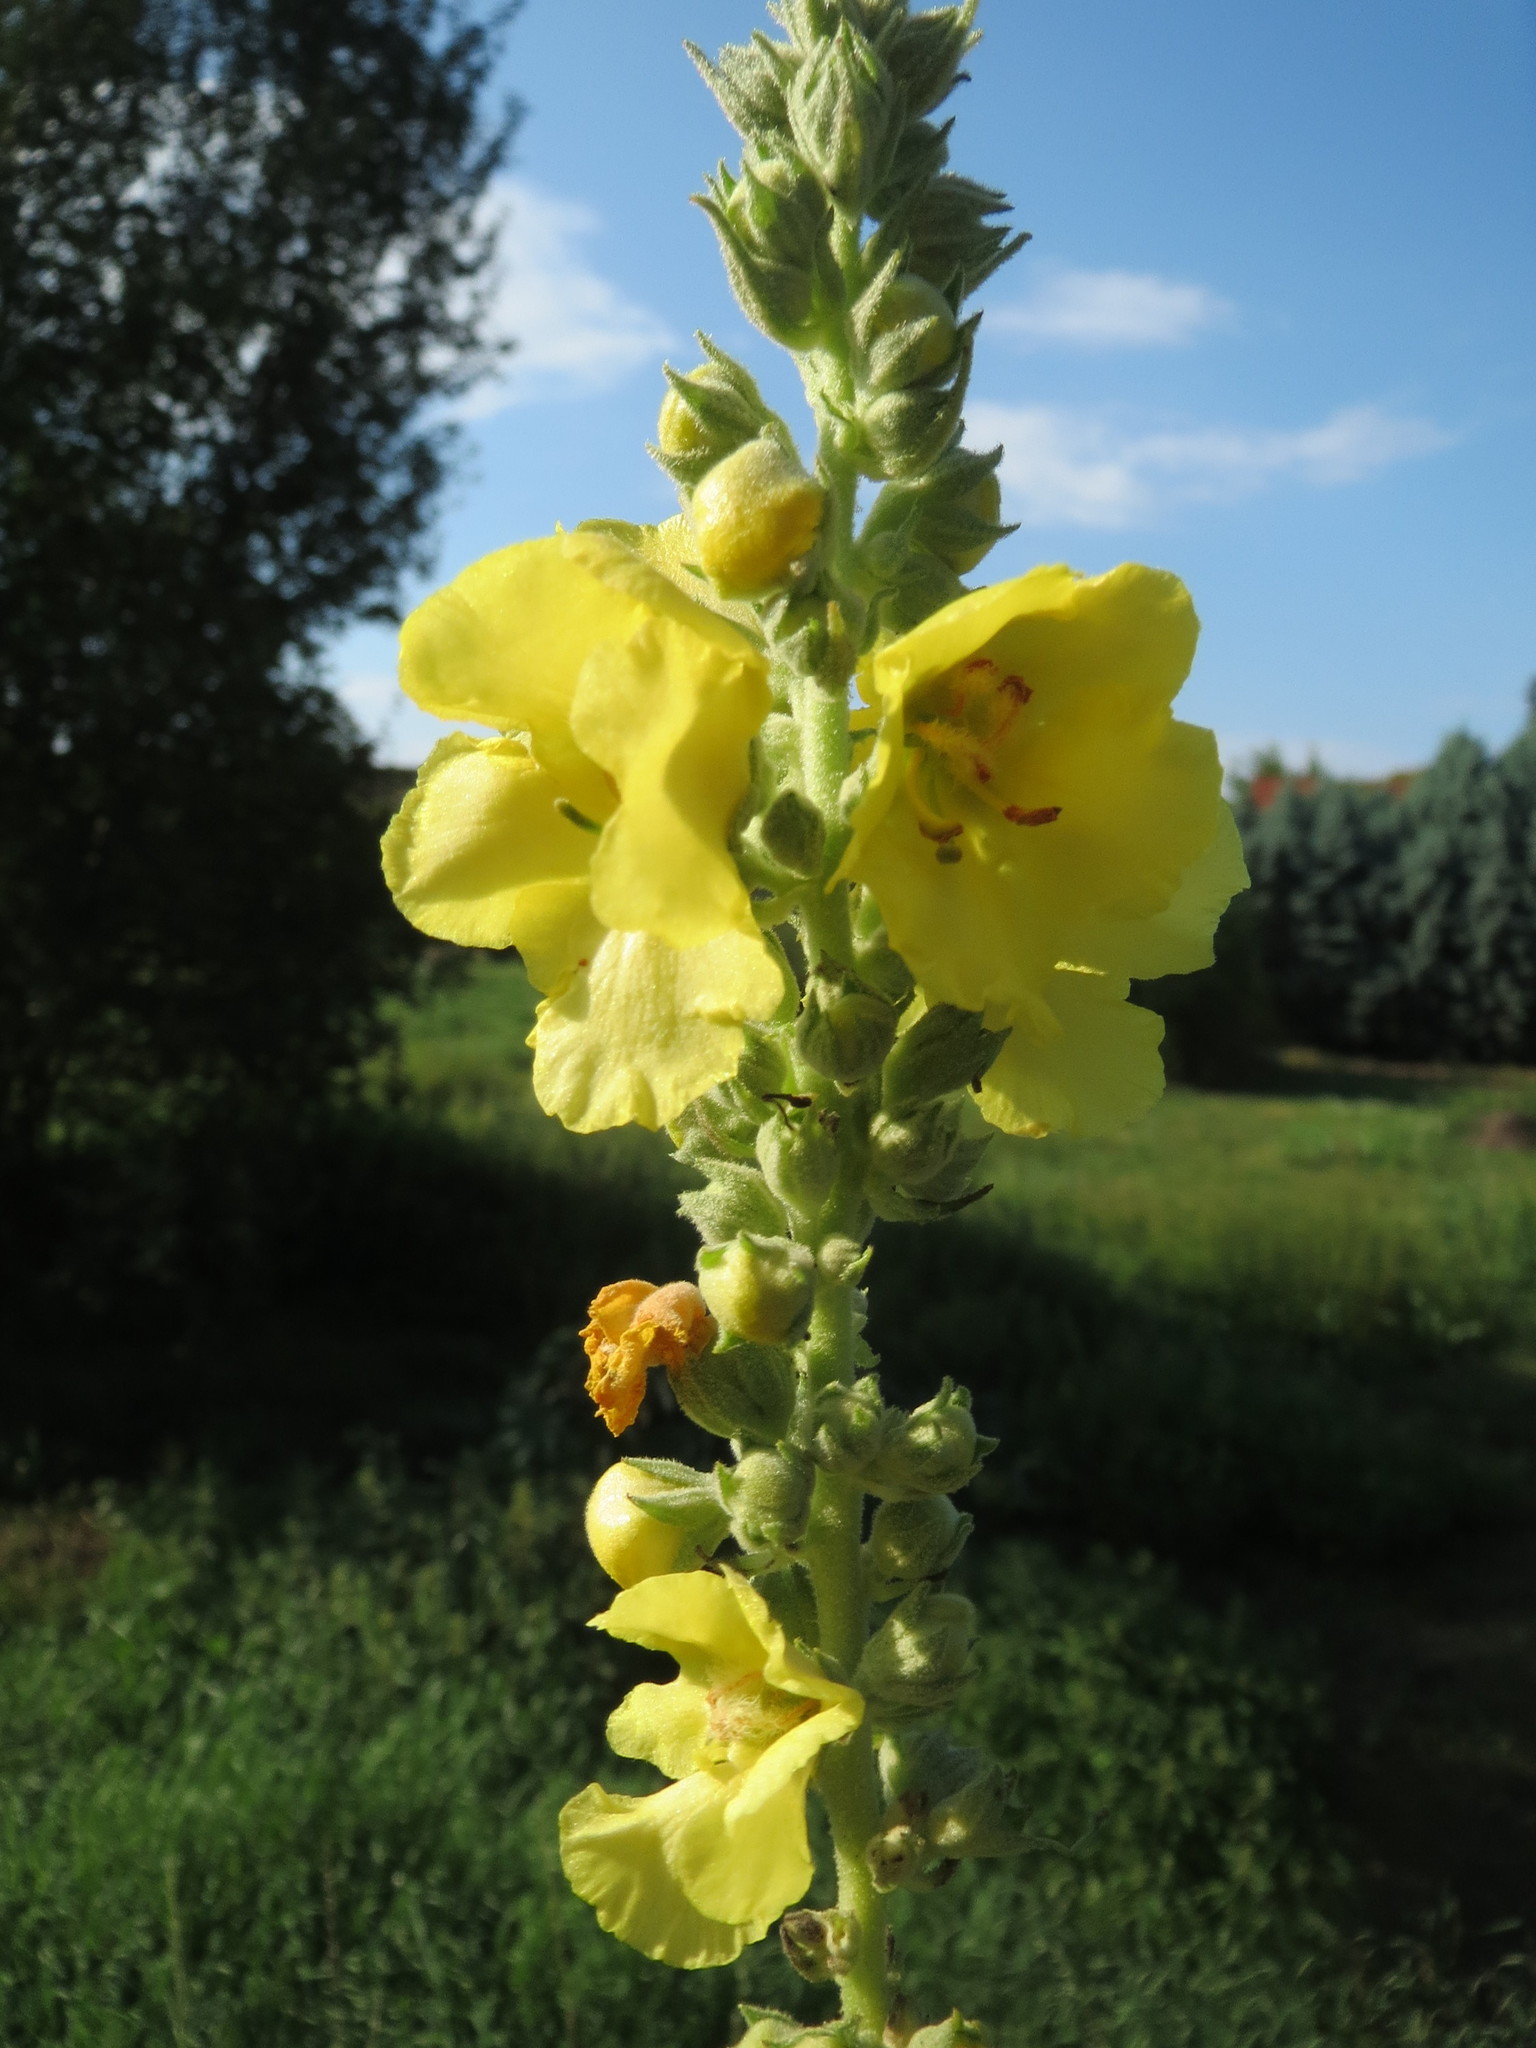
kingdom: Plantae
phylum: Tracheophyta
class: Magnoliopsida
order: Lamiales
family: Scrophulariaceae
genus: Verbascum
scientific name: Verbascum thapsus
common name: Common mullein
